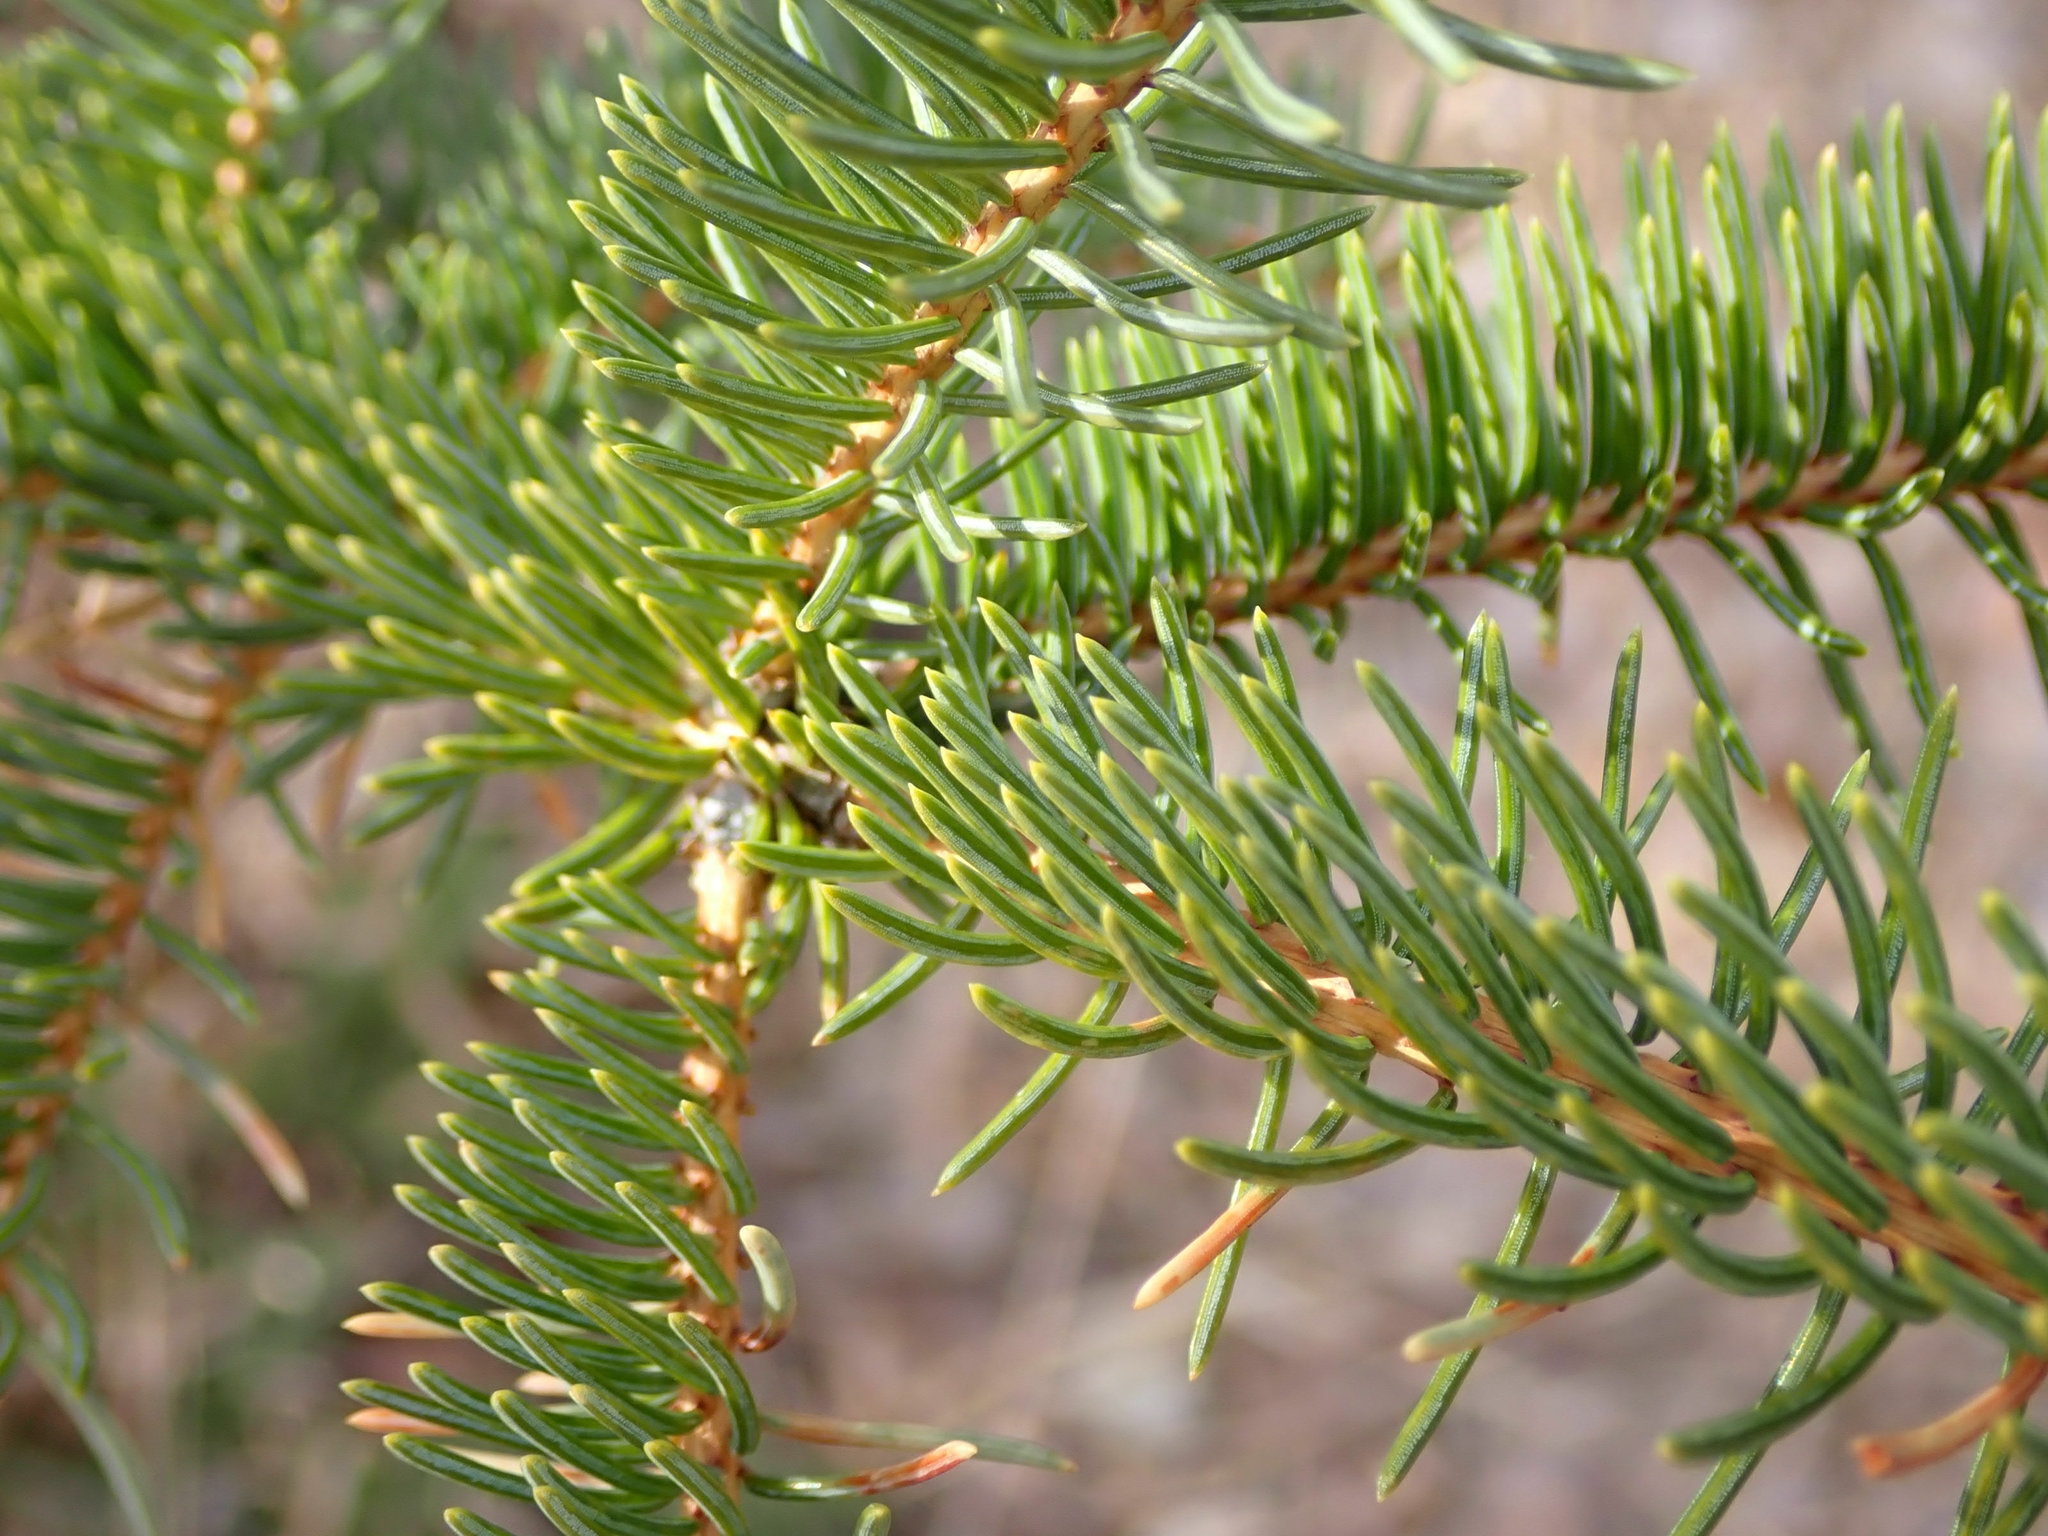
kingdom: Plantae
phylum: Tracheophyta
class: Pinopsida
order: Pinales
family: Pinaceae
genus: Picea
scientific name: Picea glauca
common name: White spruce
